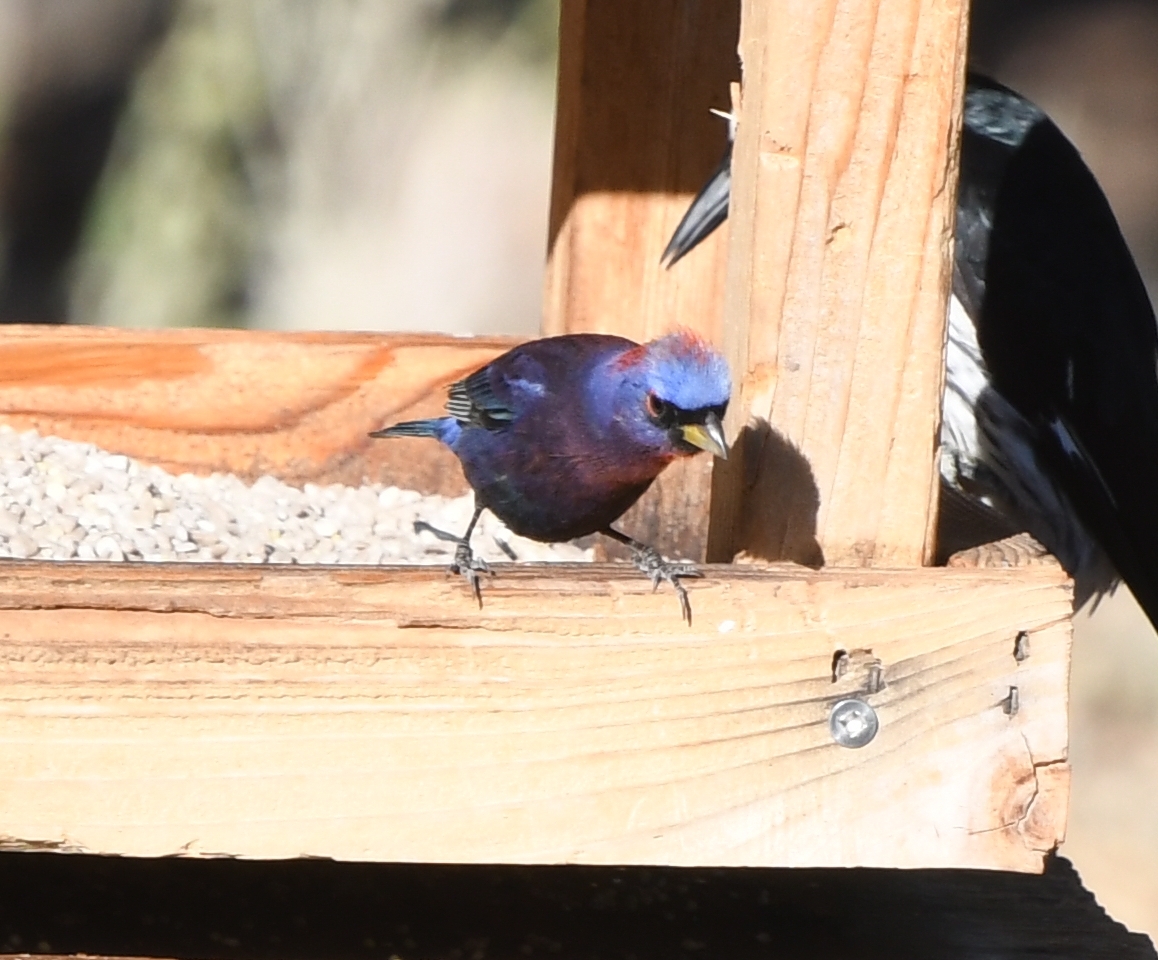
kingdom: Animalia
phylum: Chordata
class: Aves
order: Passeriformes
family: Cardinalidae
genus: Passerina
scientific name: Passerina versicolor
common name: Varied bunting
